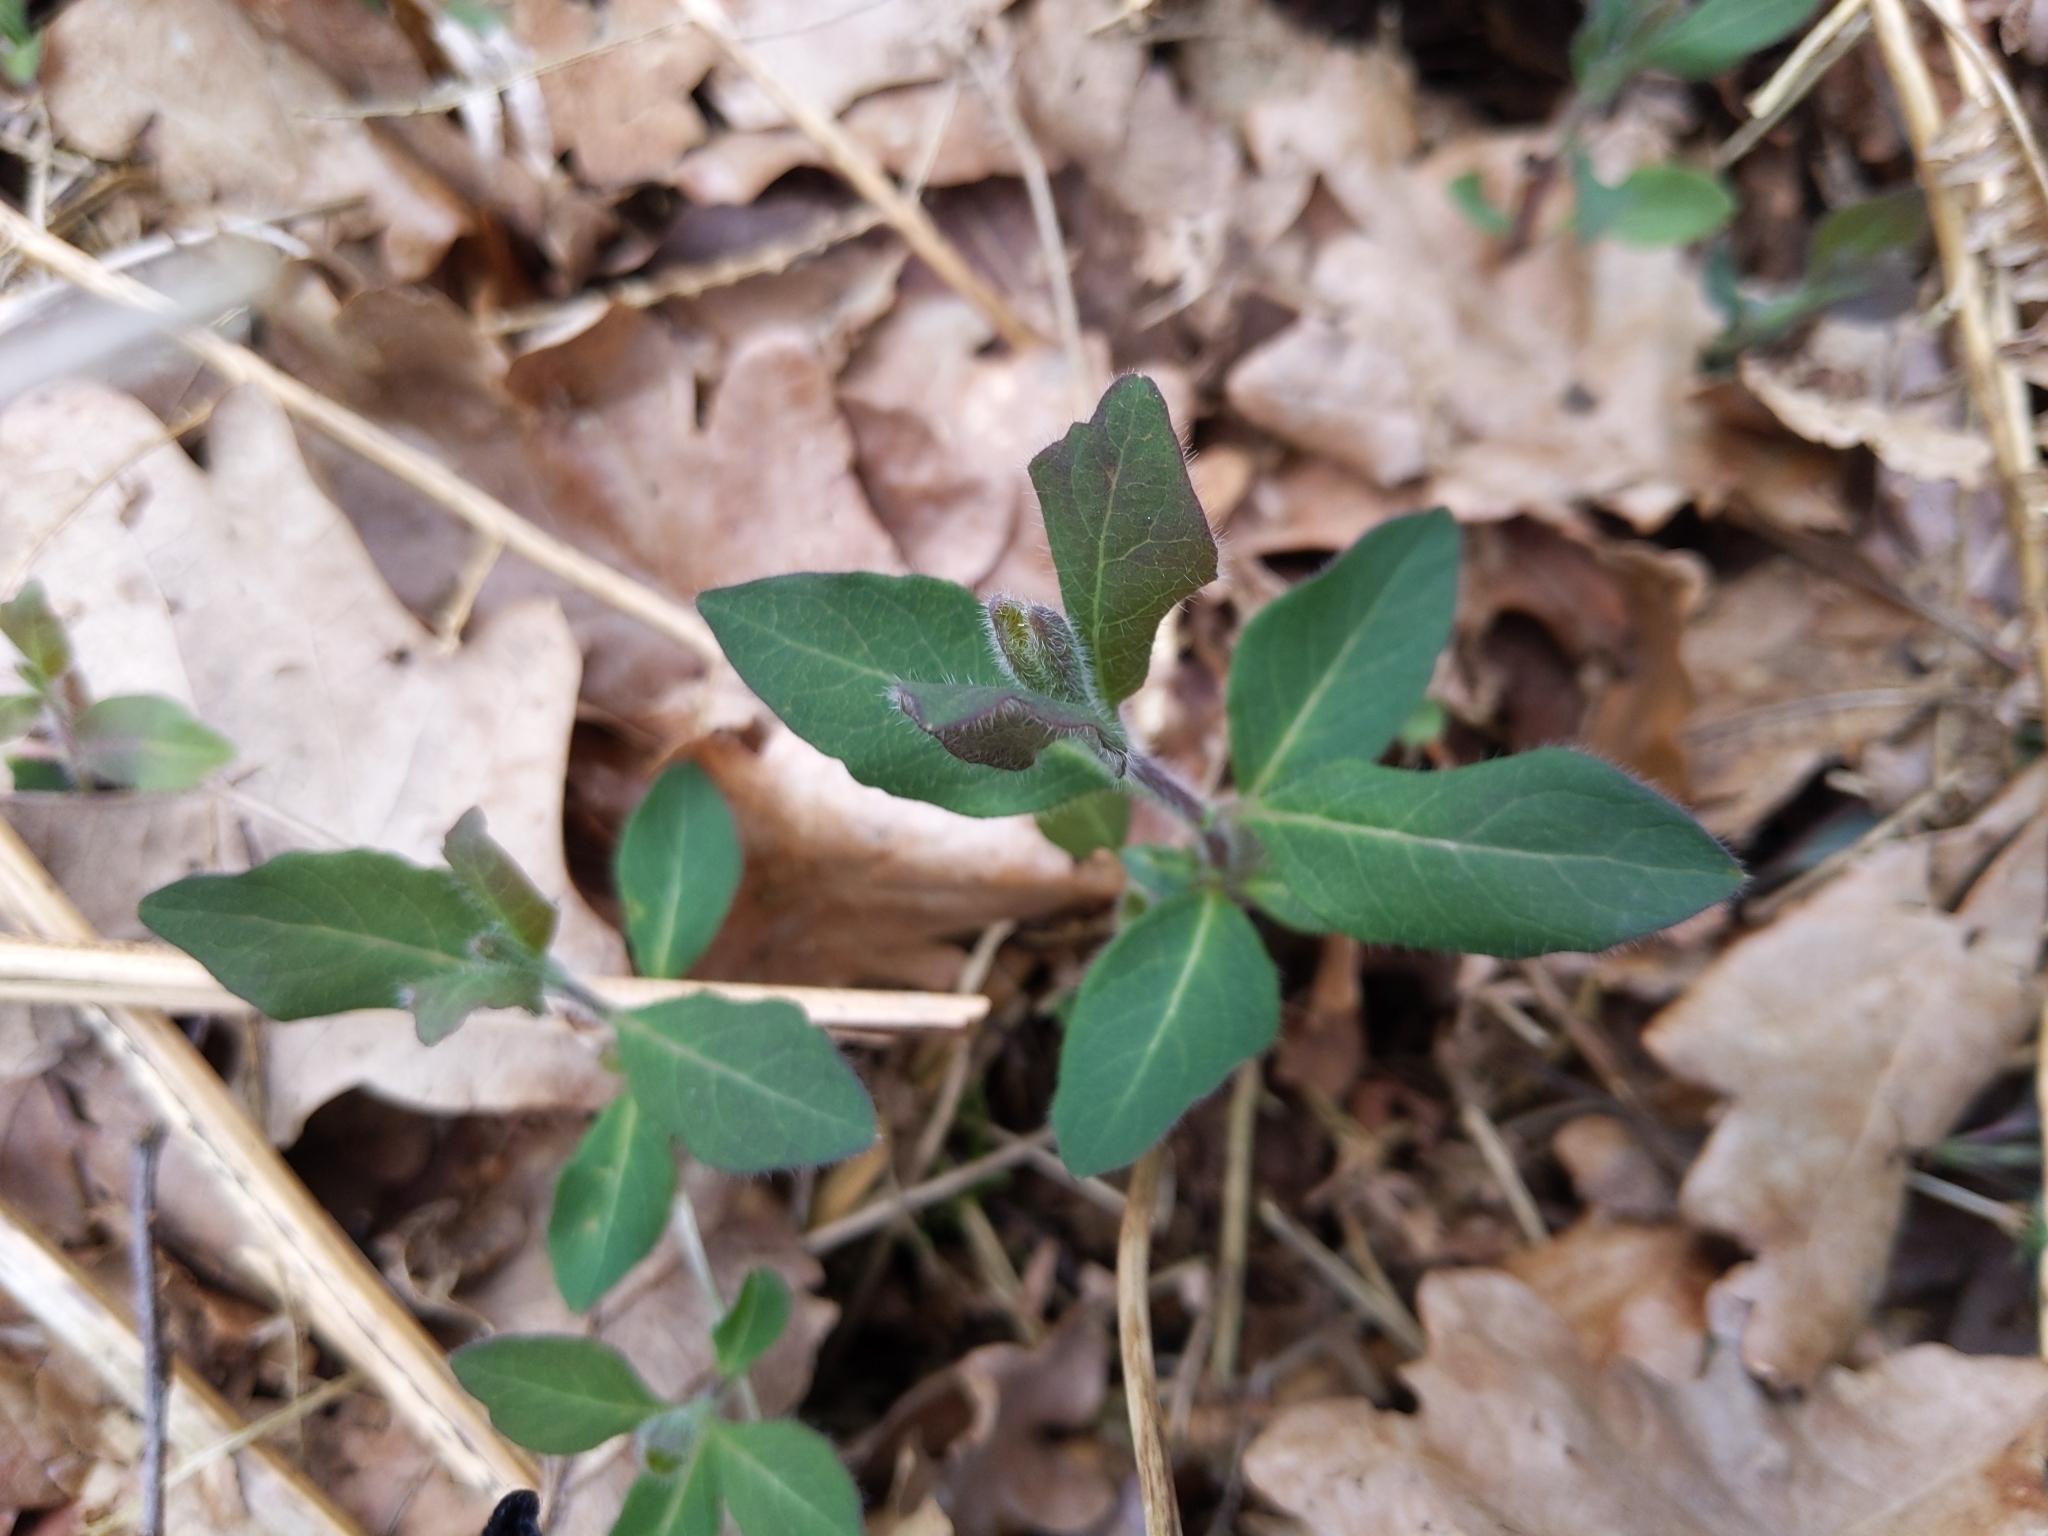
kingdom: Plantae
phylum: Tracheophyta
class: Magnoliopsida
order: Dipsacales
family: Caprifoliaceae
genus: Lonicera
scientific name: Lonicera periclymenum
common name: European honeysuckle
